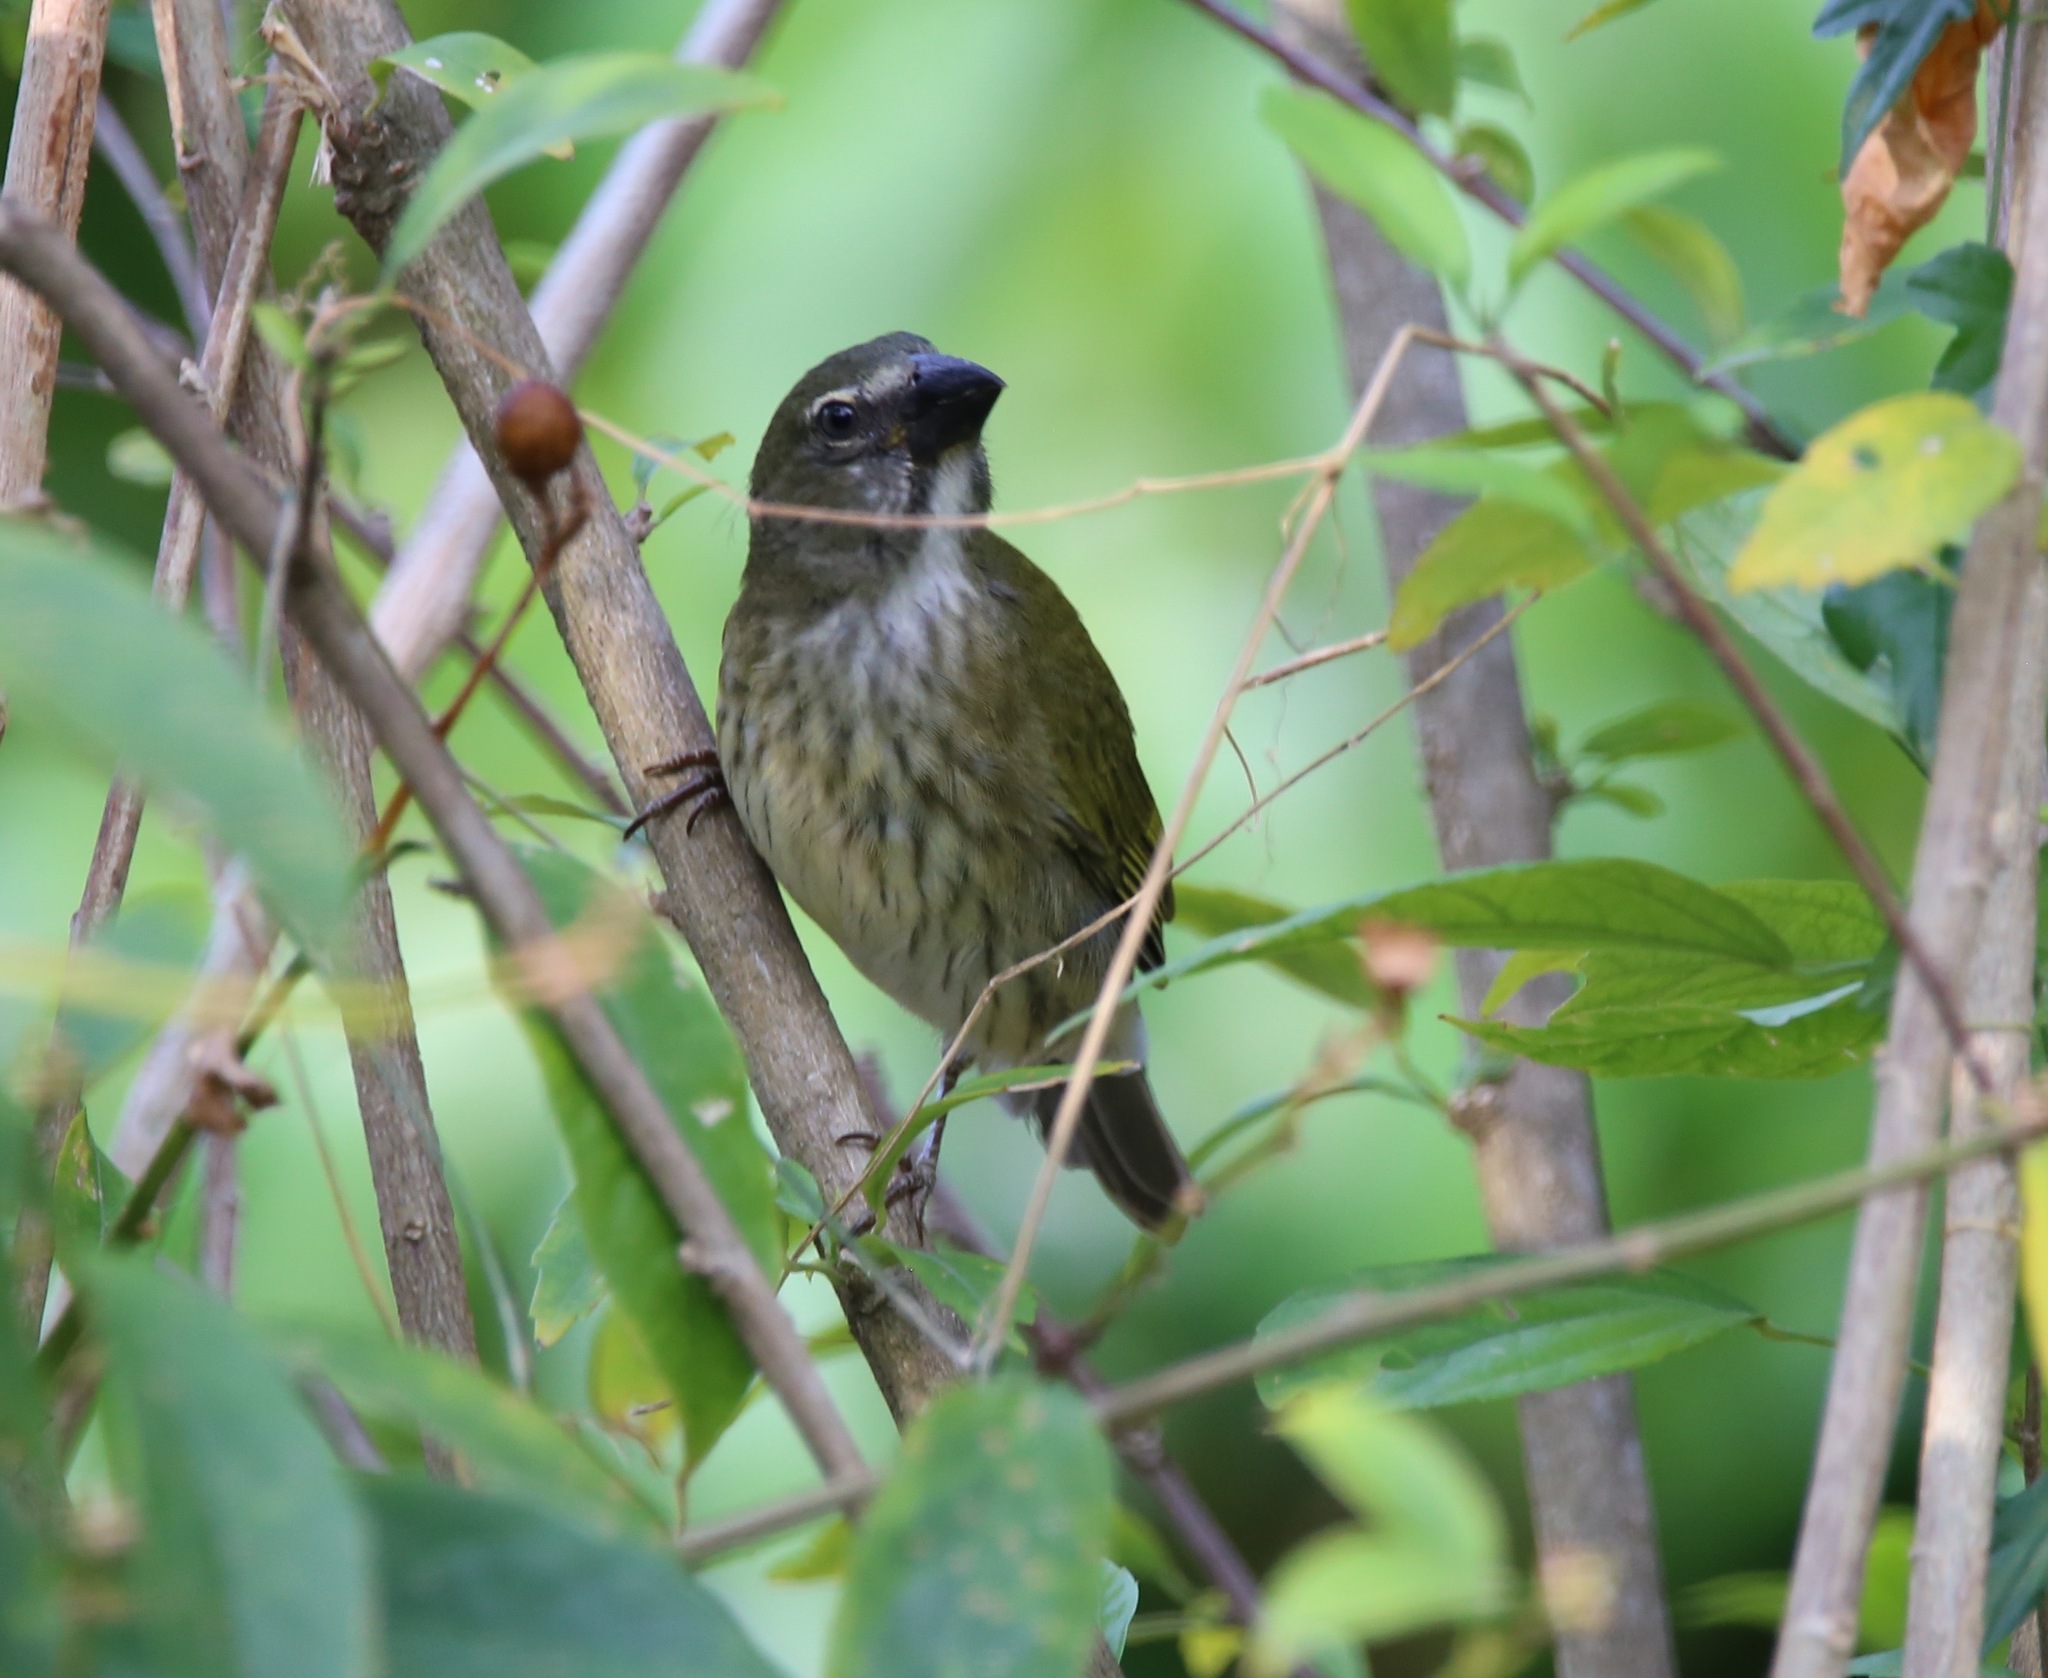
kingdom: Animalia
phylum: Chordata
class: Aves
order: Passeriformes
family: Thraupidae
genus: Saltator
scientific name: Saltator striatipectus
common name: Streaked saltator
